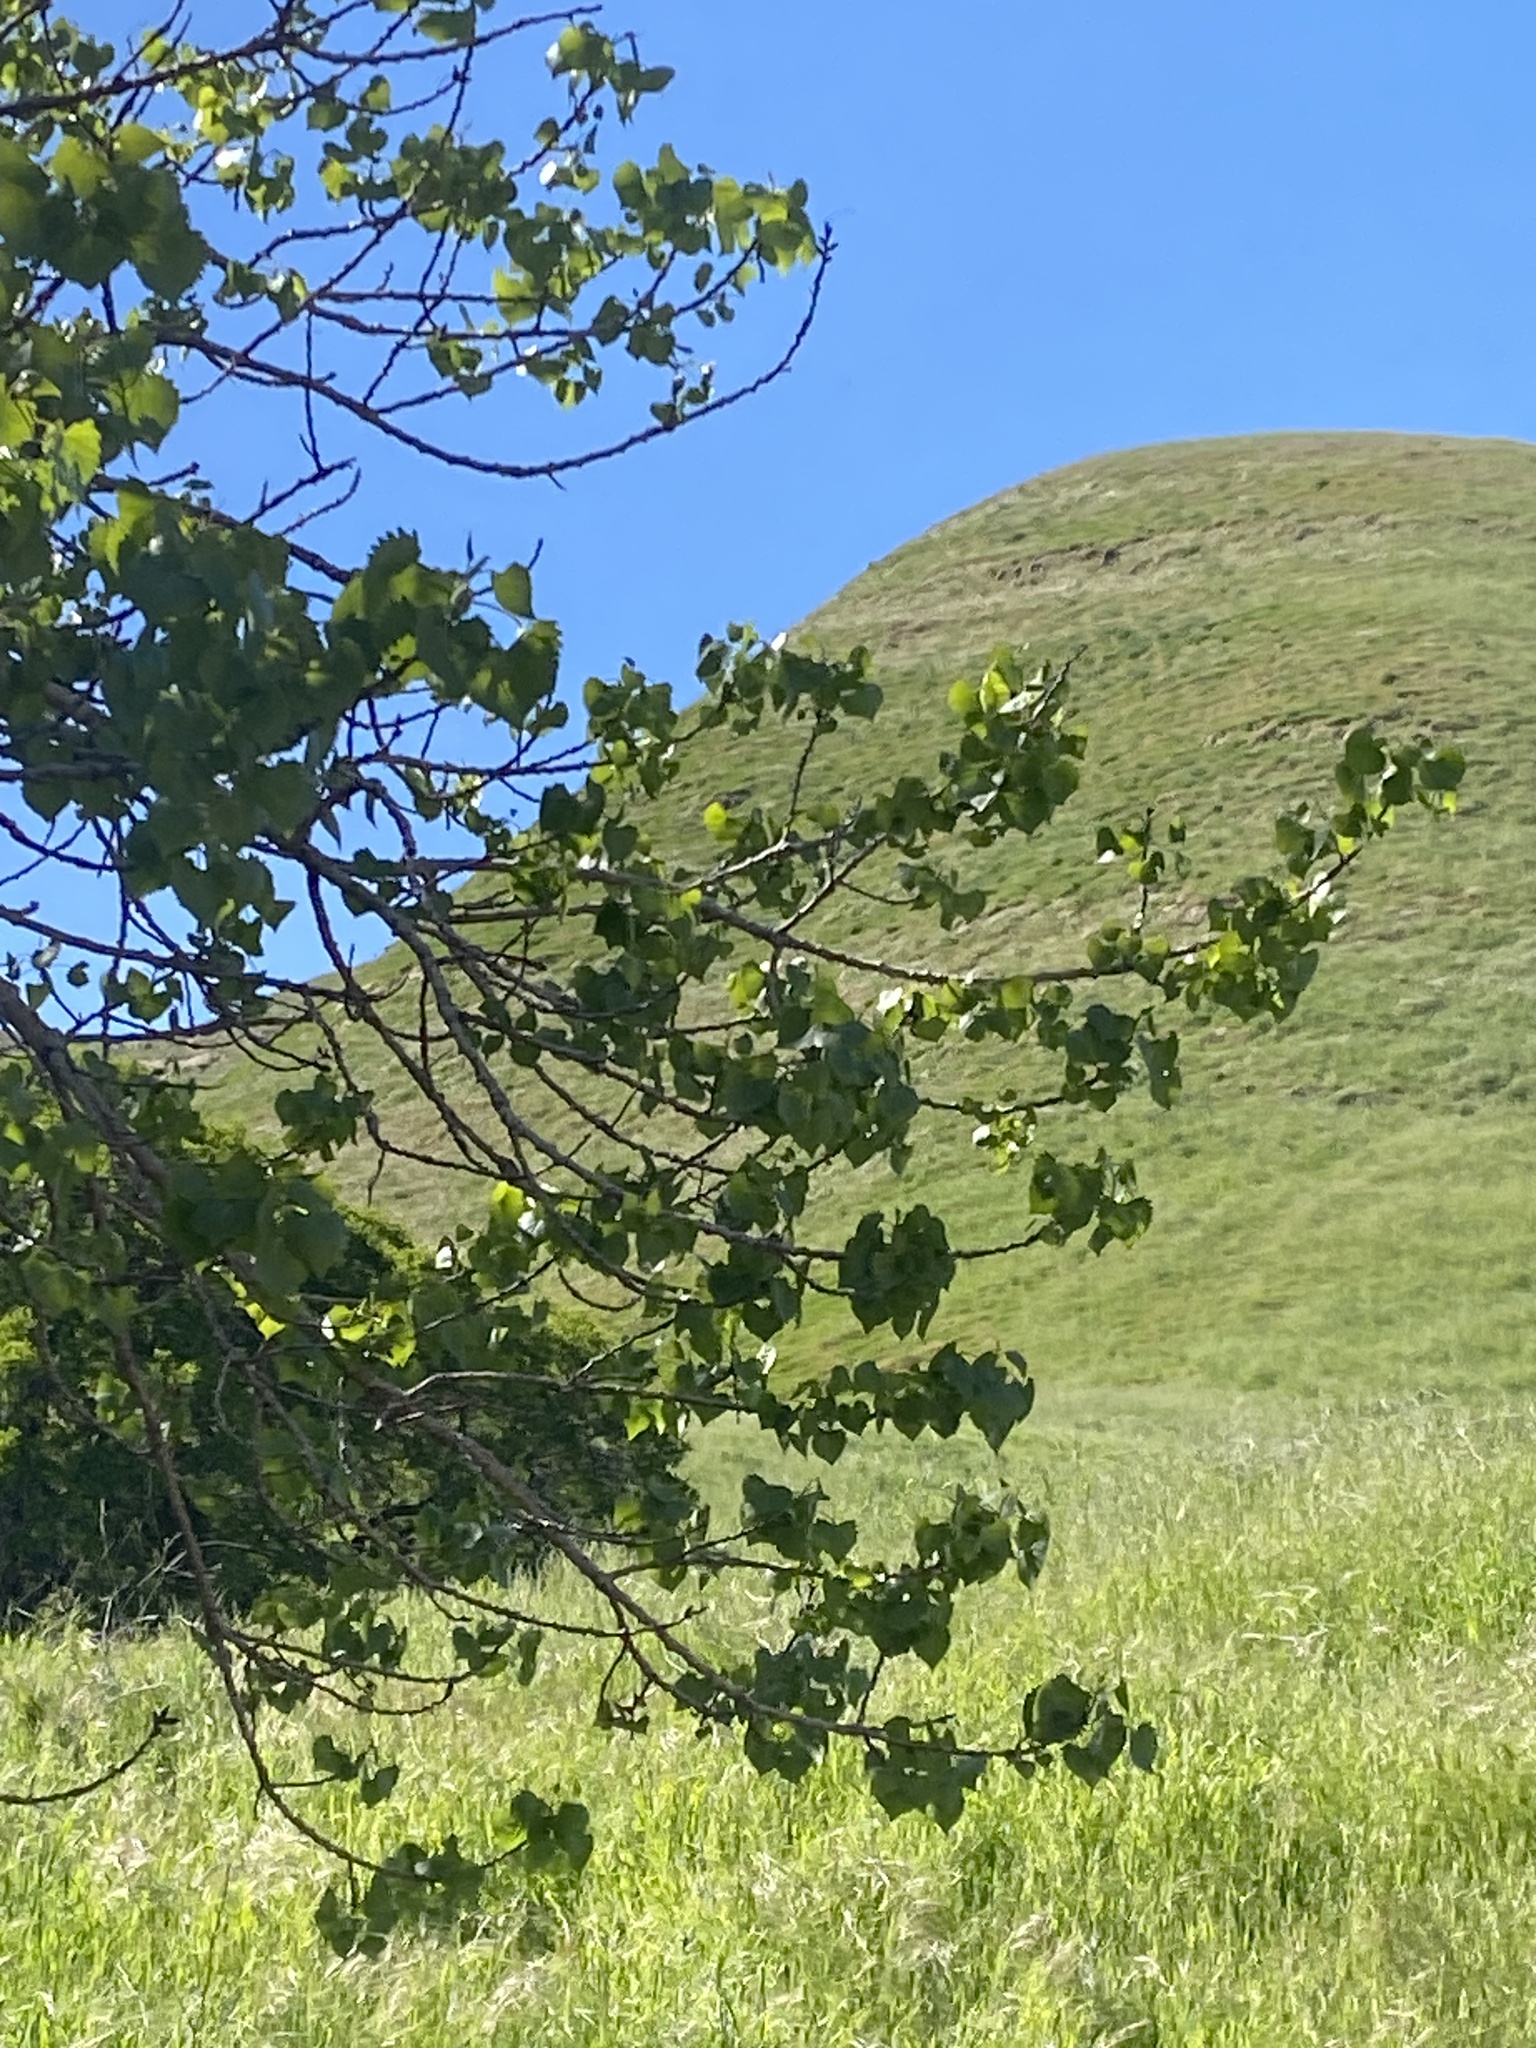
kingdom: Plantae
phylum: Tracheophyta
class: Magnoliopsida
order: Malpighiales
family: Salicaceae
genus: Populus
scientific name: Populus fremontii
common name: Fremont's cottonwood
